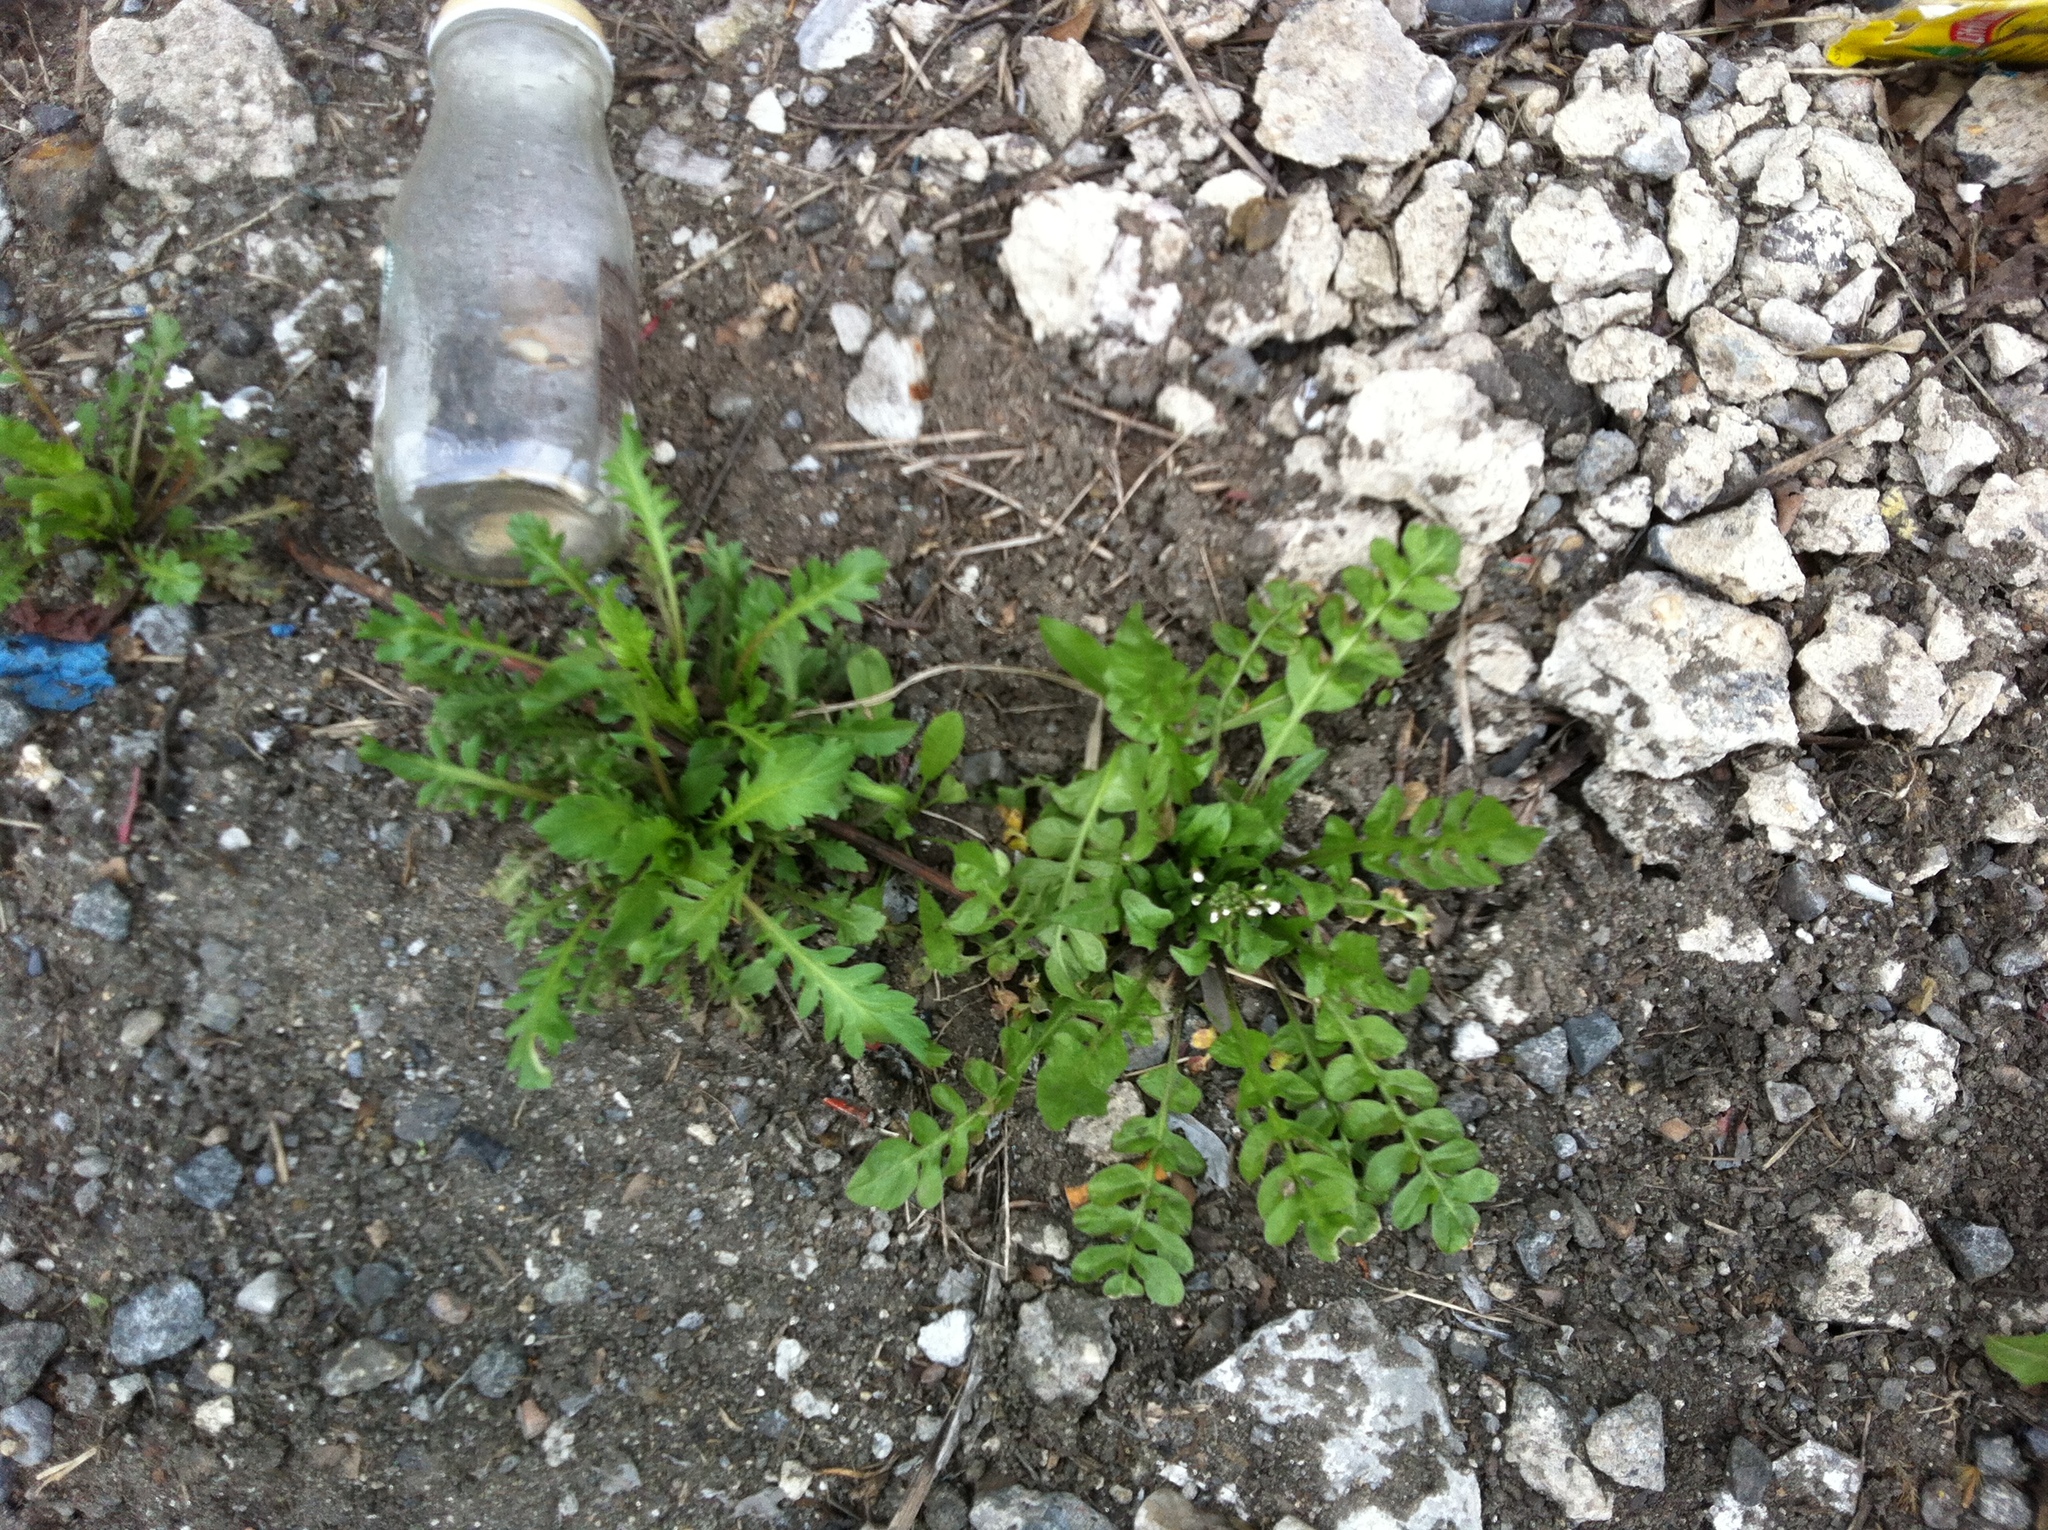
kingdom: Plantae
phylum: Tracheophyta
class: Magnoliopsida
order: Brassicales
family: Brassicaceae
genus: Capsella
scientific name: Capsella bursa-pastoris
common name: Shepherd's purse
